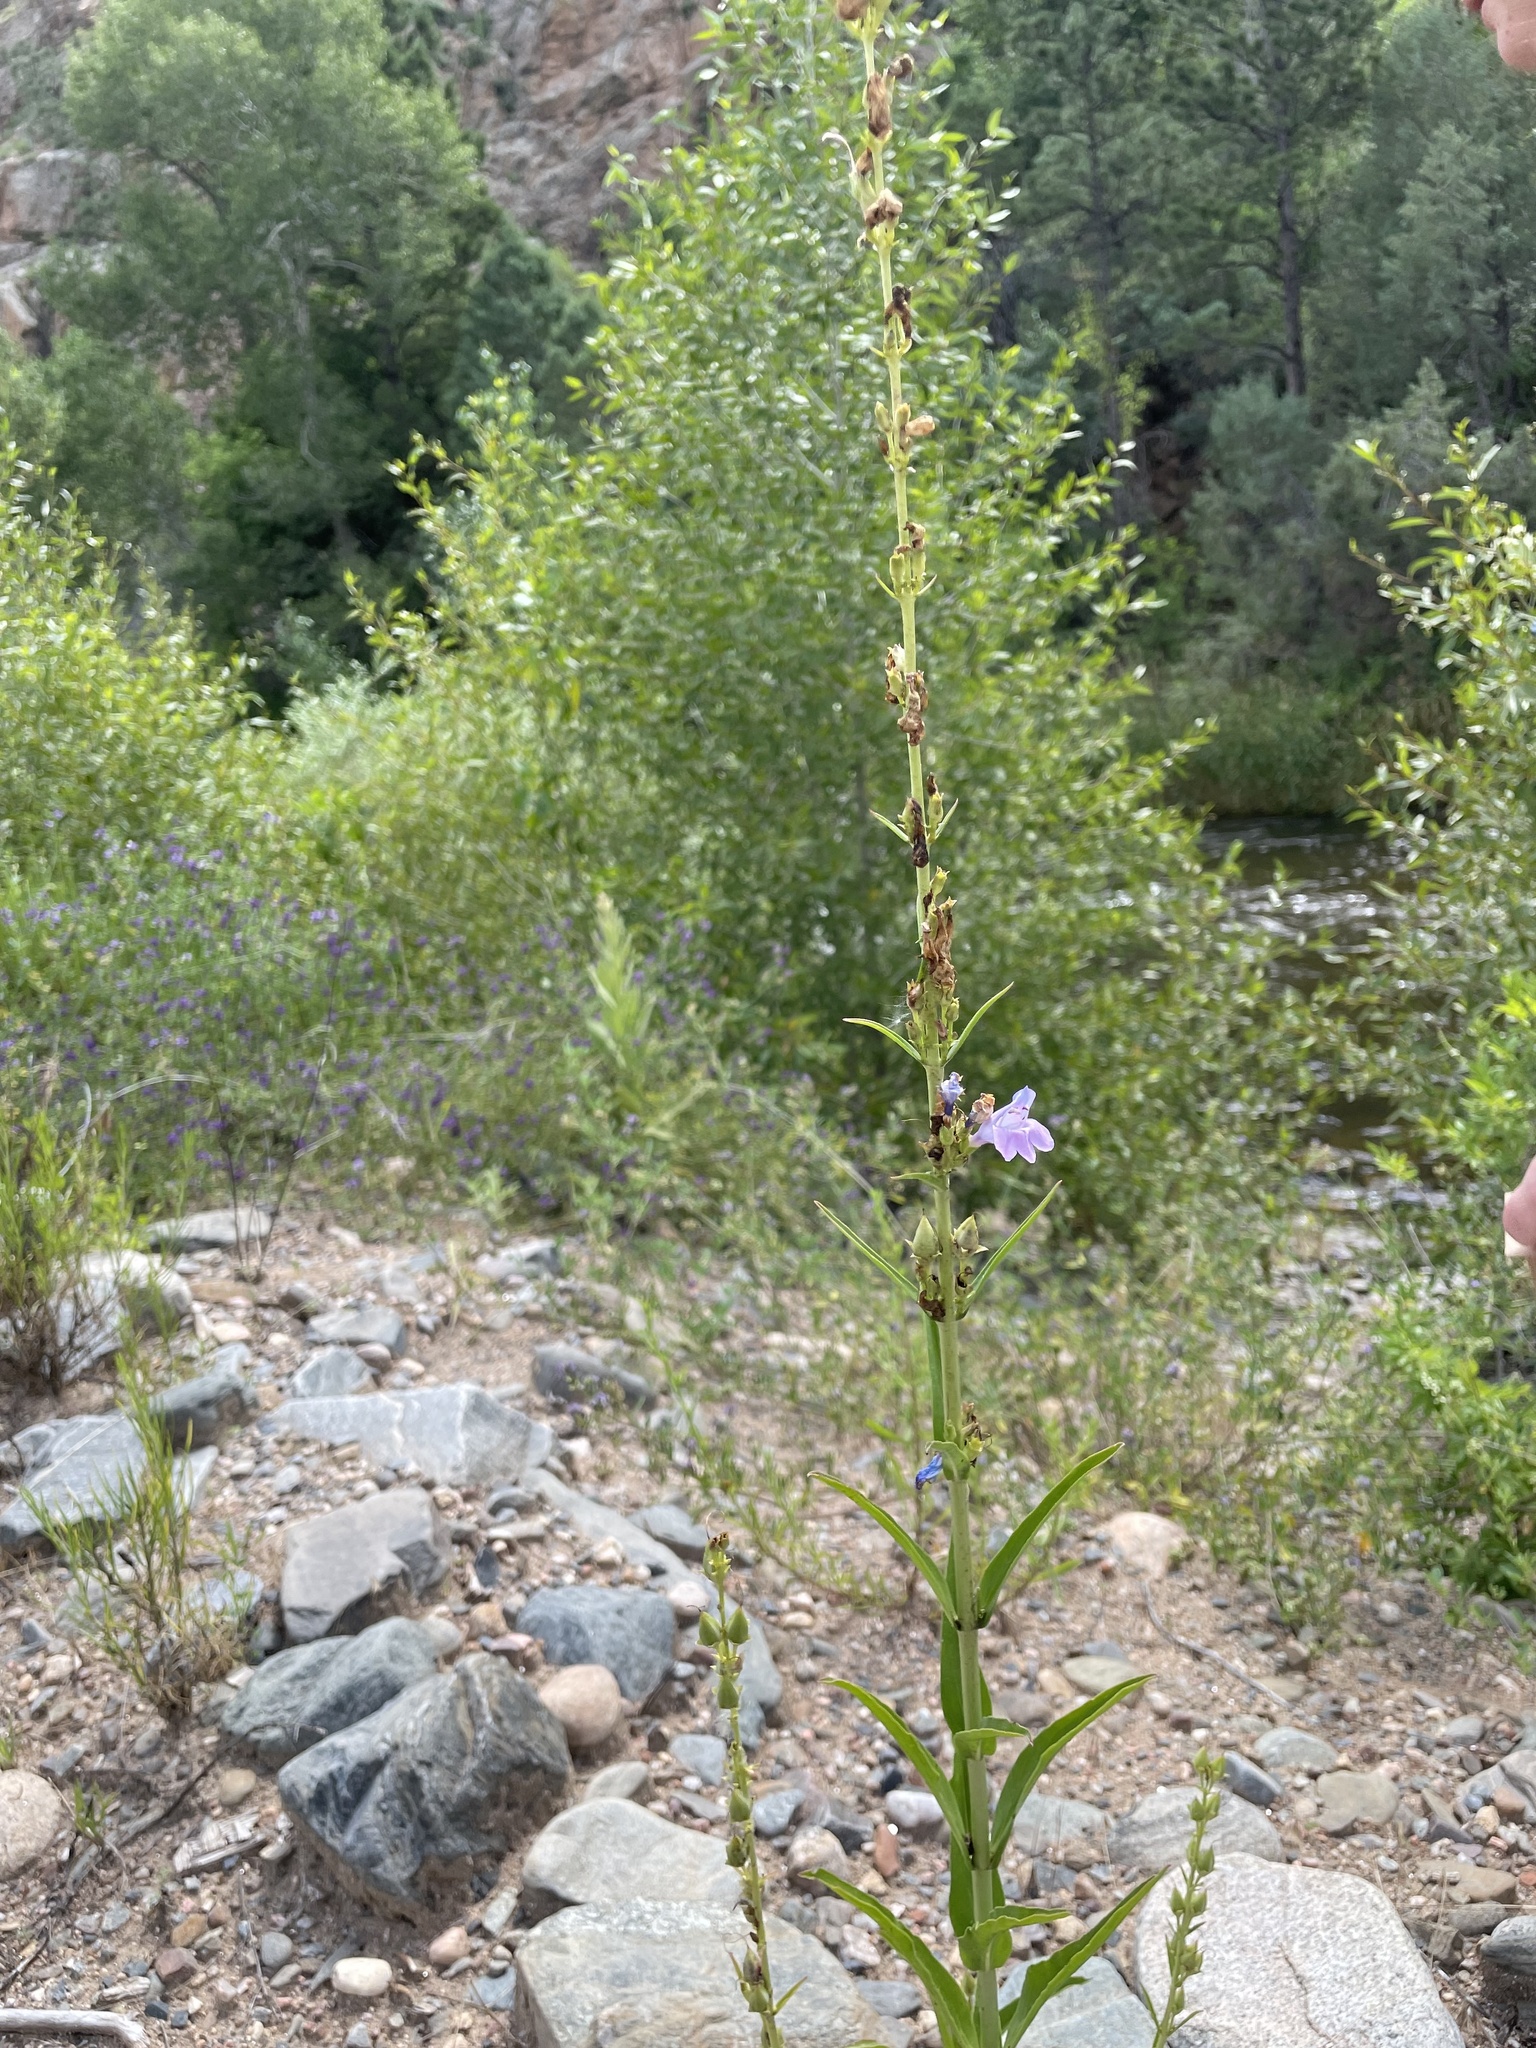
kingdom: Plantae
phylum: Tracheophyta
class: Magnoliopsida
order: Lamiales
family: Plantaginaceae
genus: Penstemon
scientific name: Penstemon virgatus
